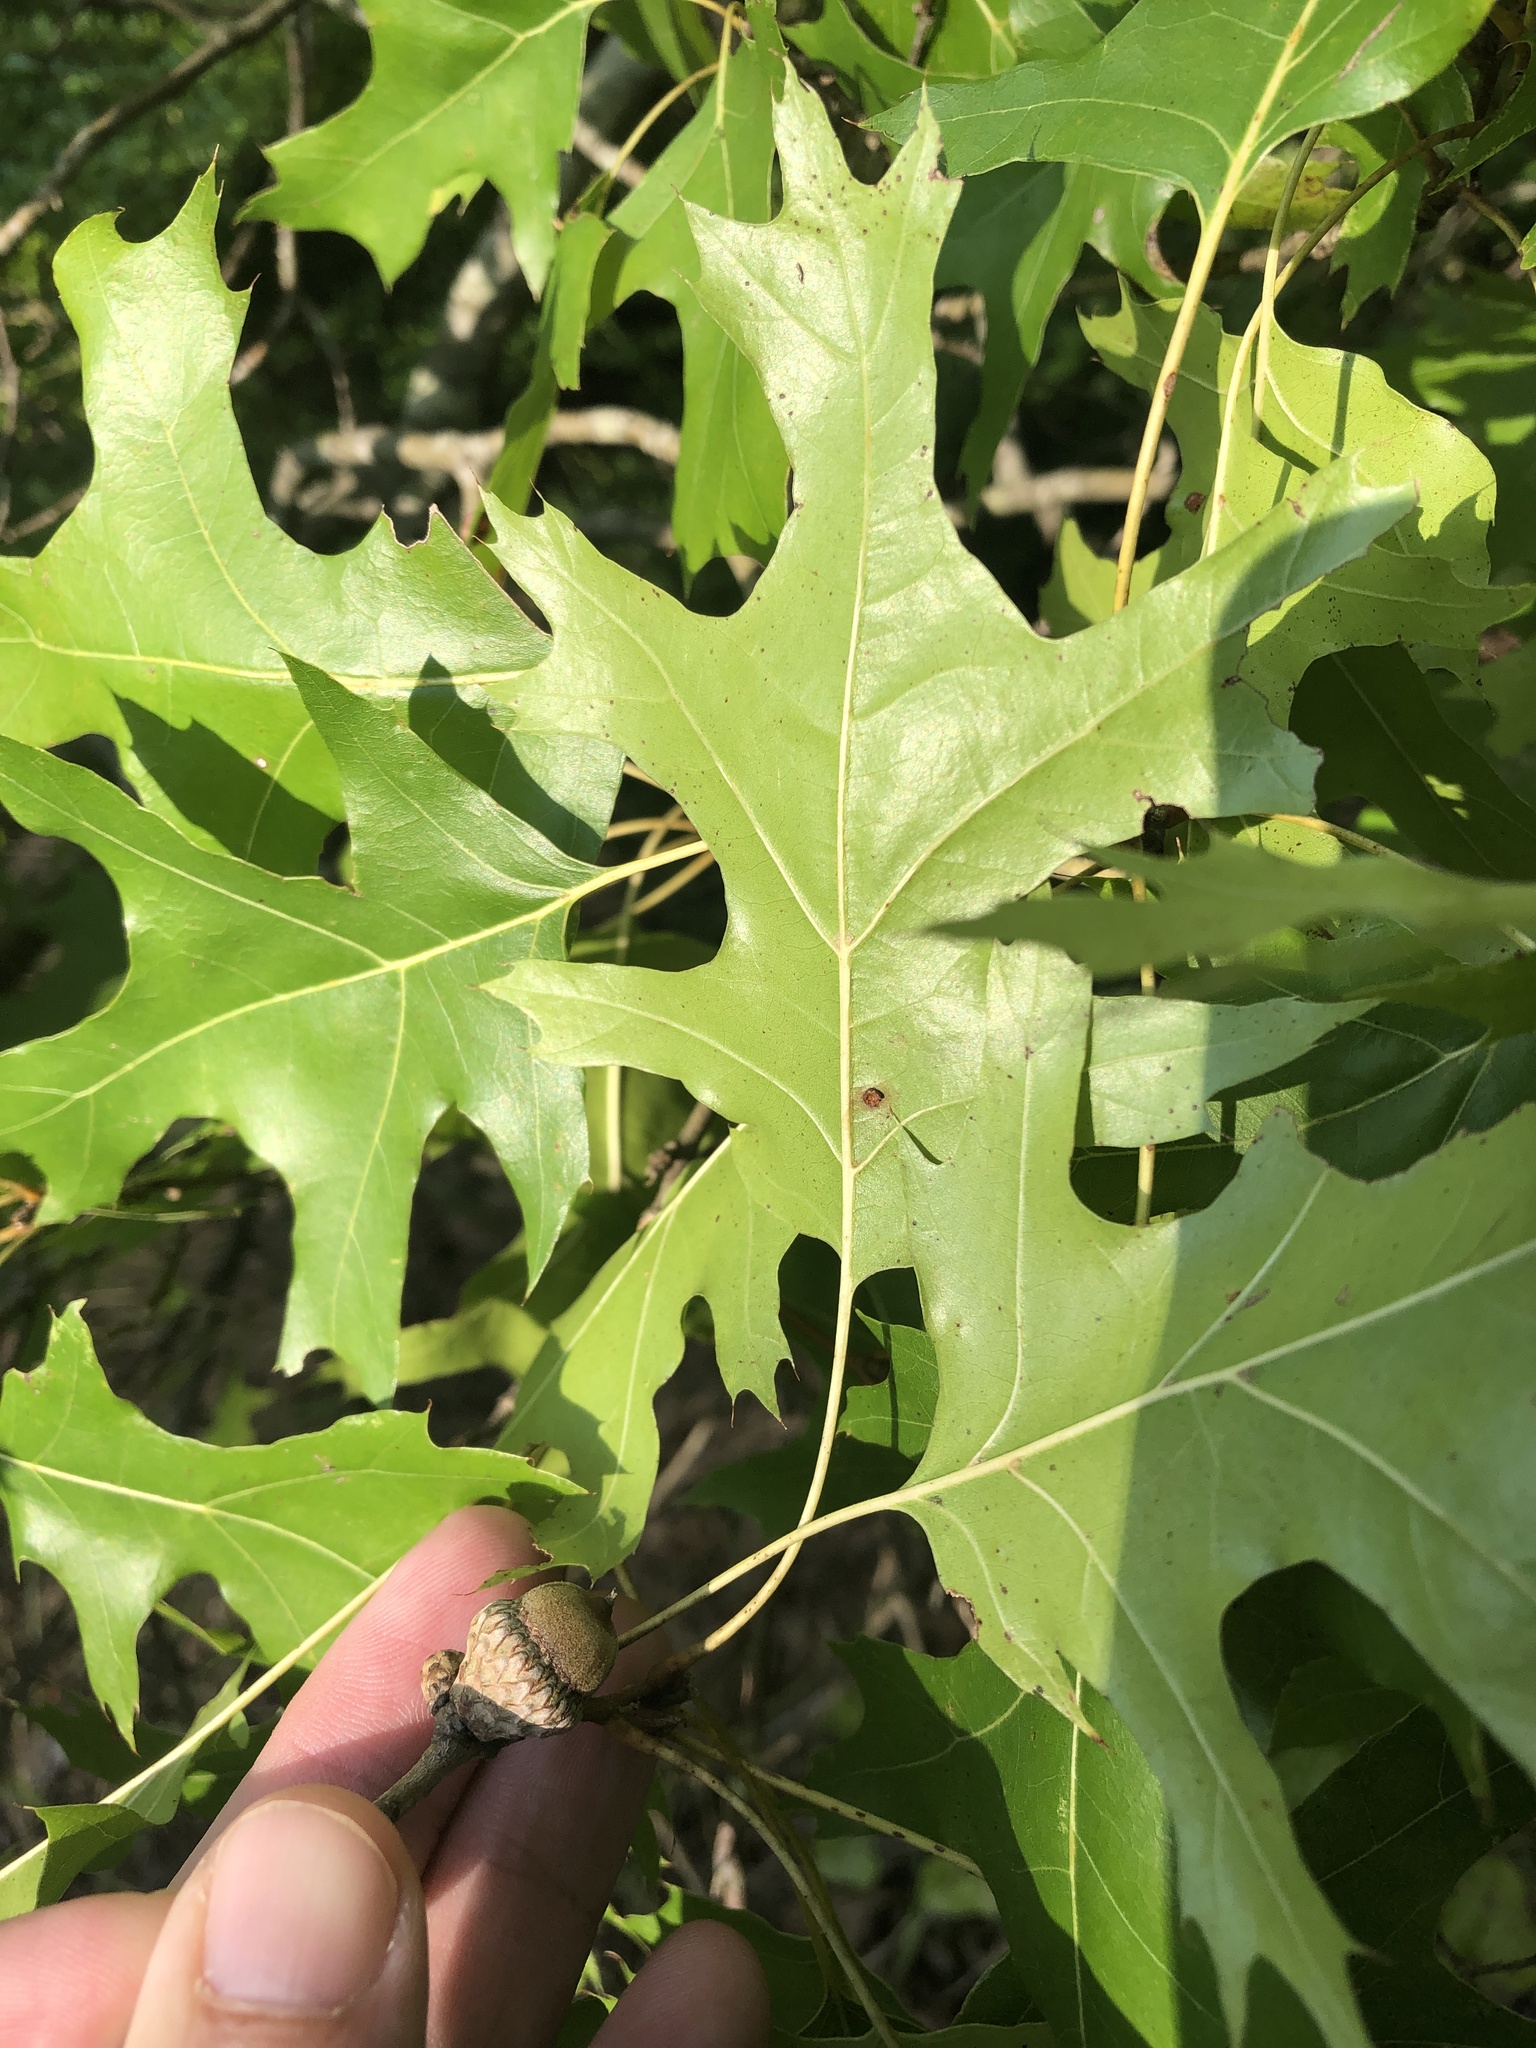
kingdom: Plantae
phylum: Tracheophyta
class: Magnoliopsida
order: Fagales
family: Fagaceae
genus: Quercus
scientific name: Quercus shumardii
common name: Shumard oak
